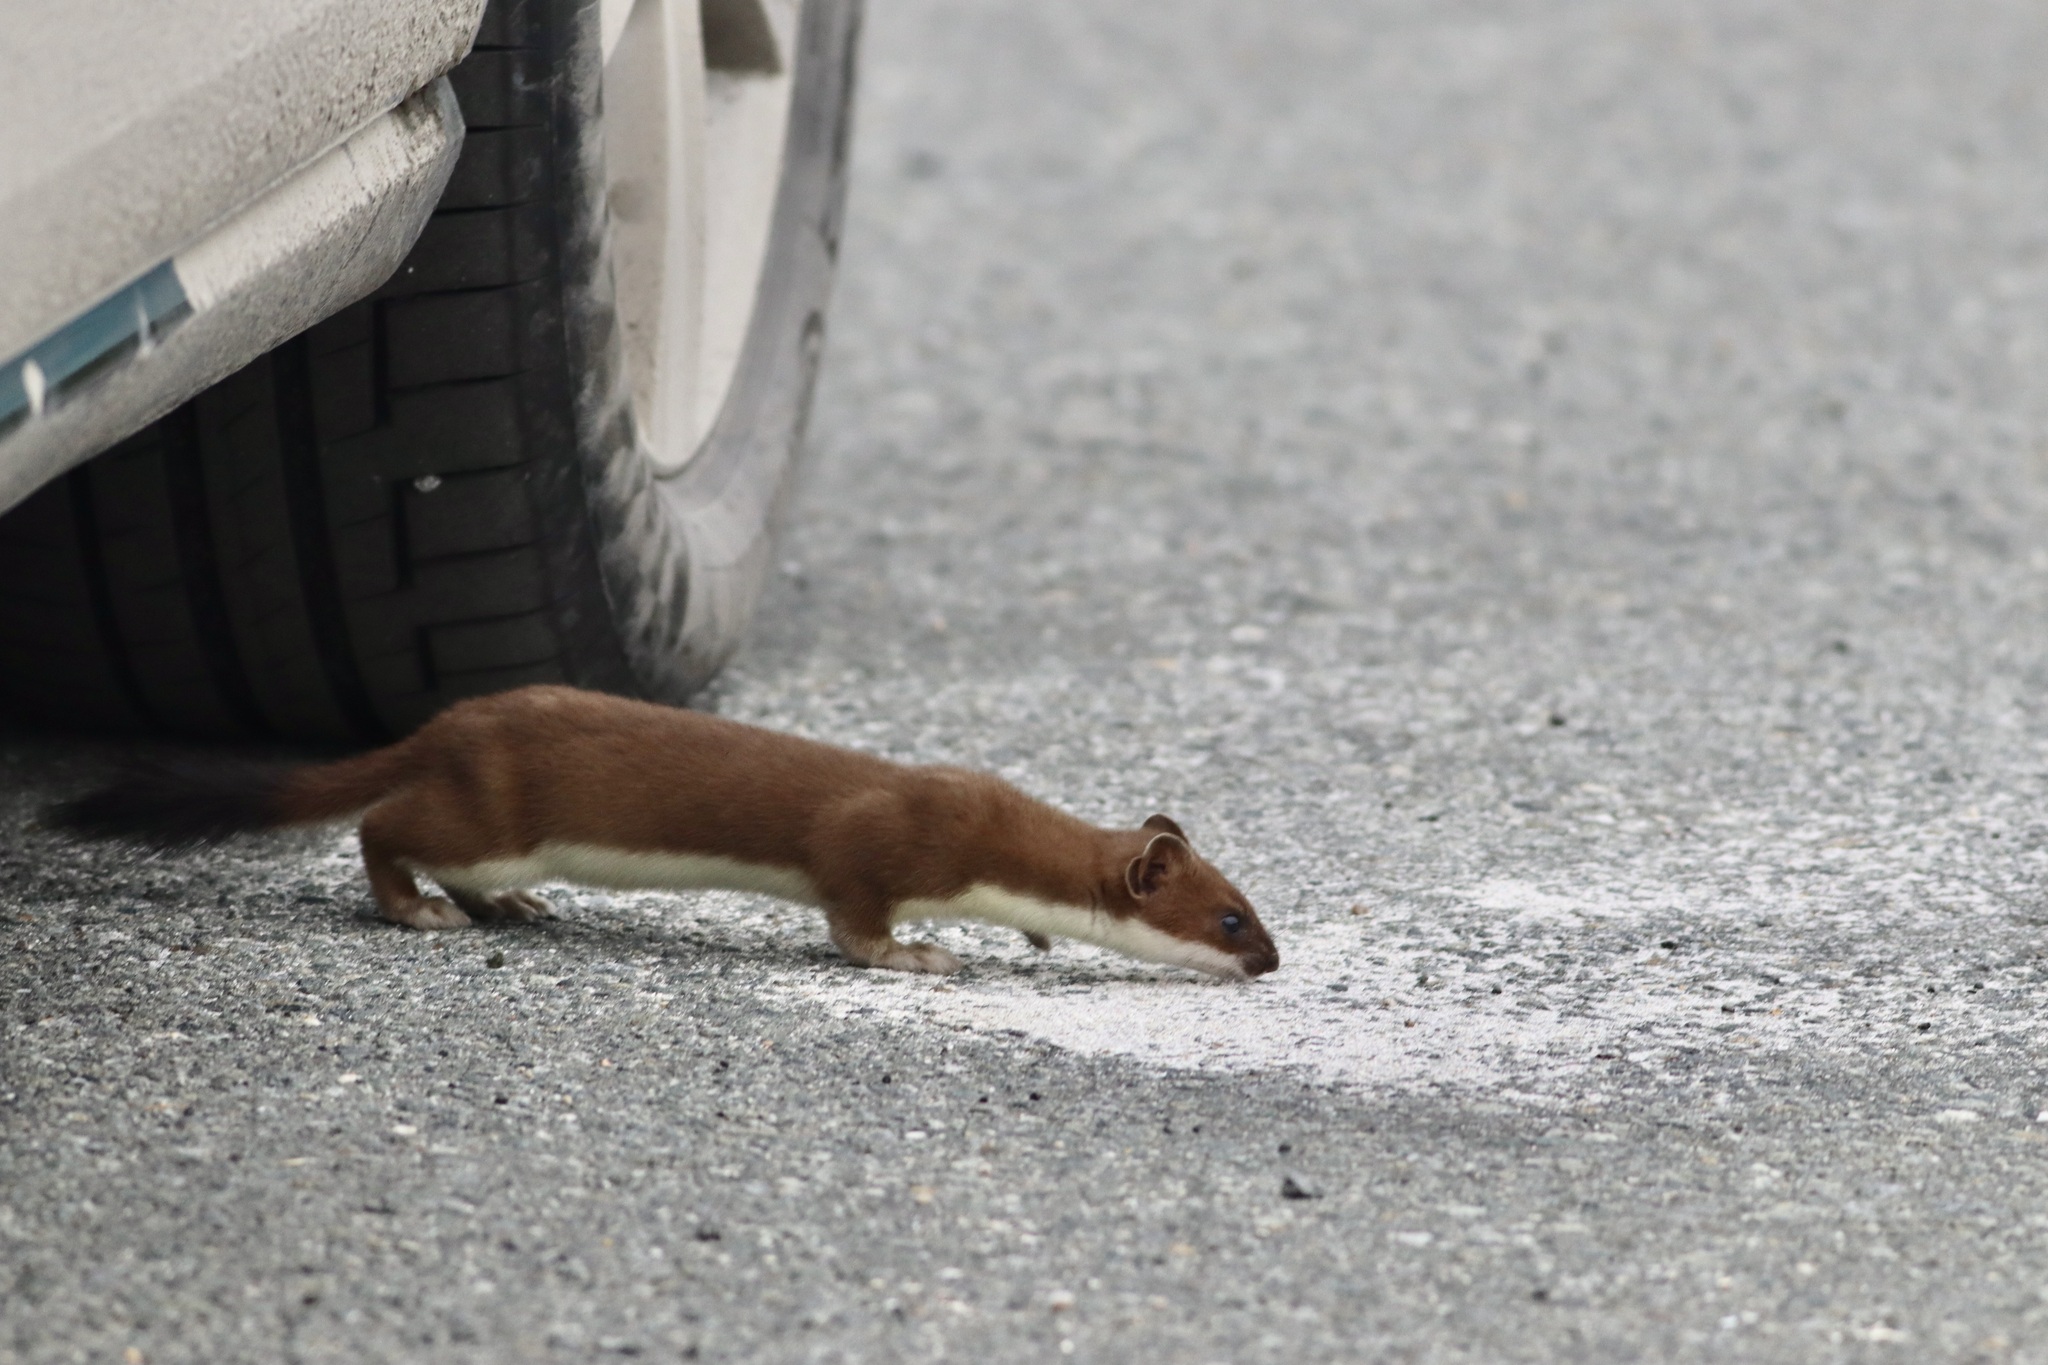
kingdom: Animalia
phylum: Chordata
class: Mammalia
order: Carnivora
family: Mustelidae
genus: Mustela
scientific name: Mustela erminea
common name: Stoat
